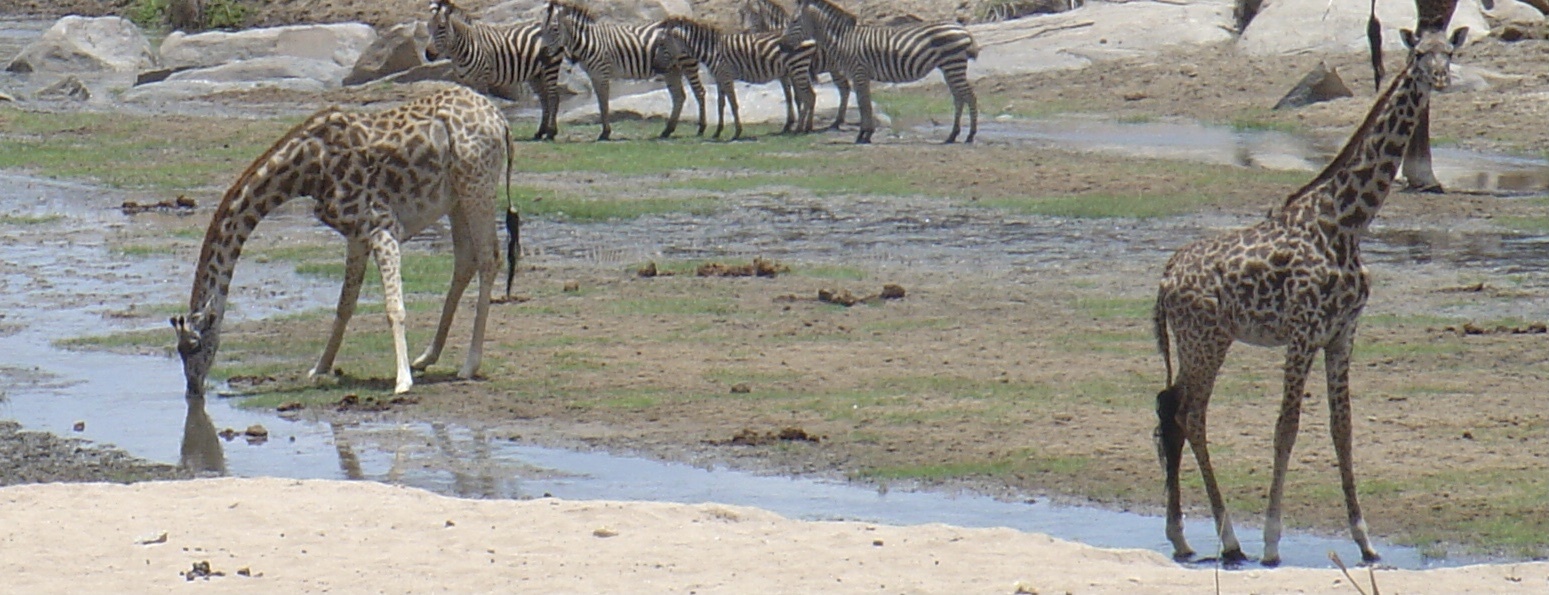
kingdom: Animalia
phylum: Chordata
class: Mammalia
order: Artiodactyla
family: Giraffidae
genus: Giraffa
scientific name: Giraffa tippelskirchi
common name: Masai giraffe
